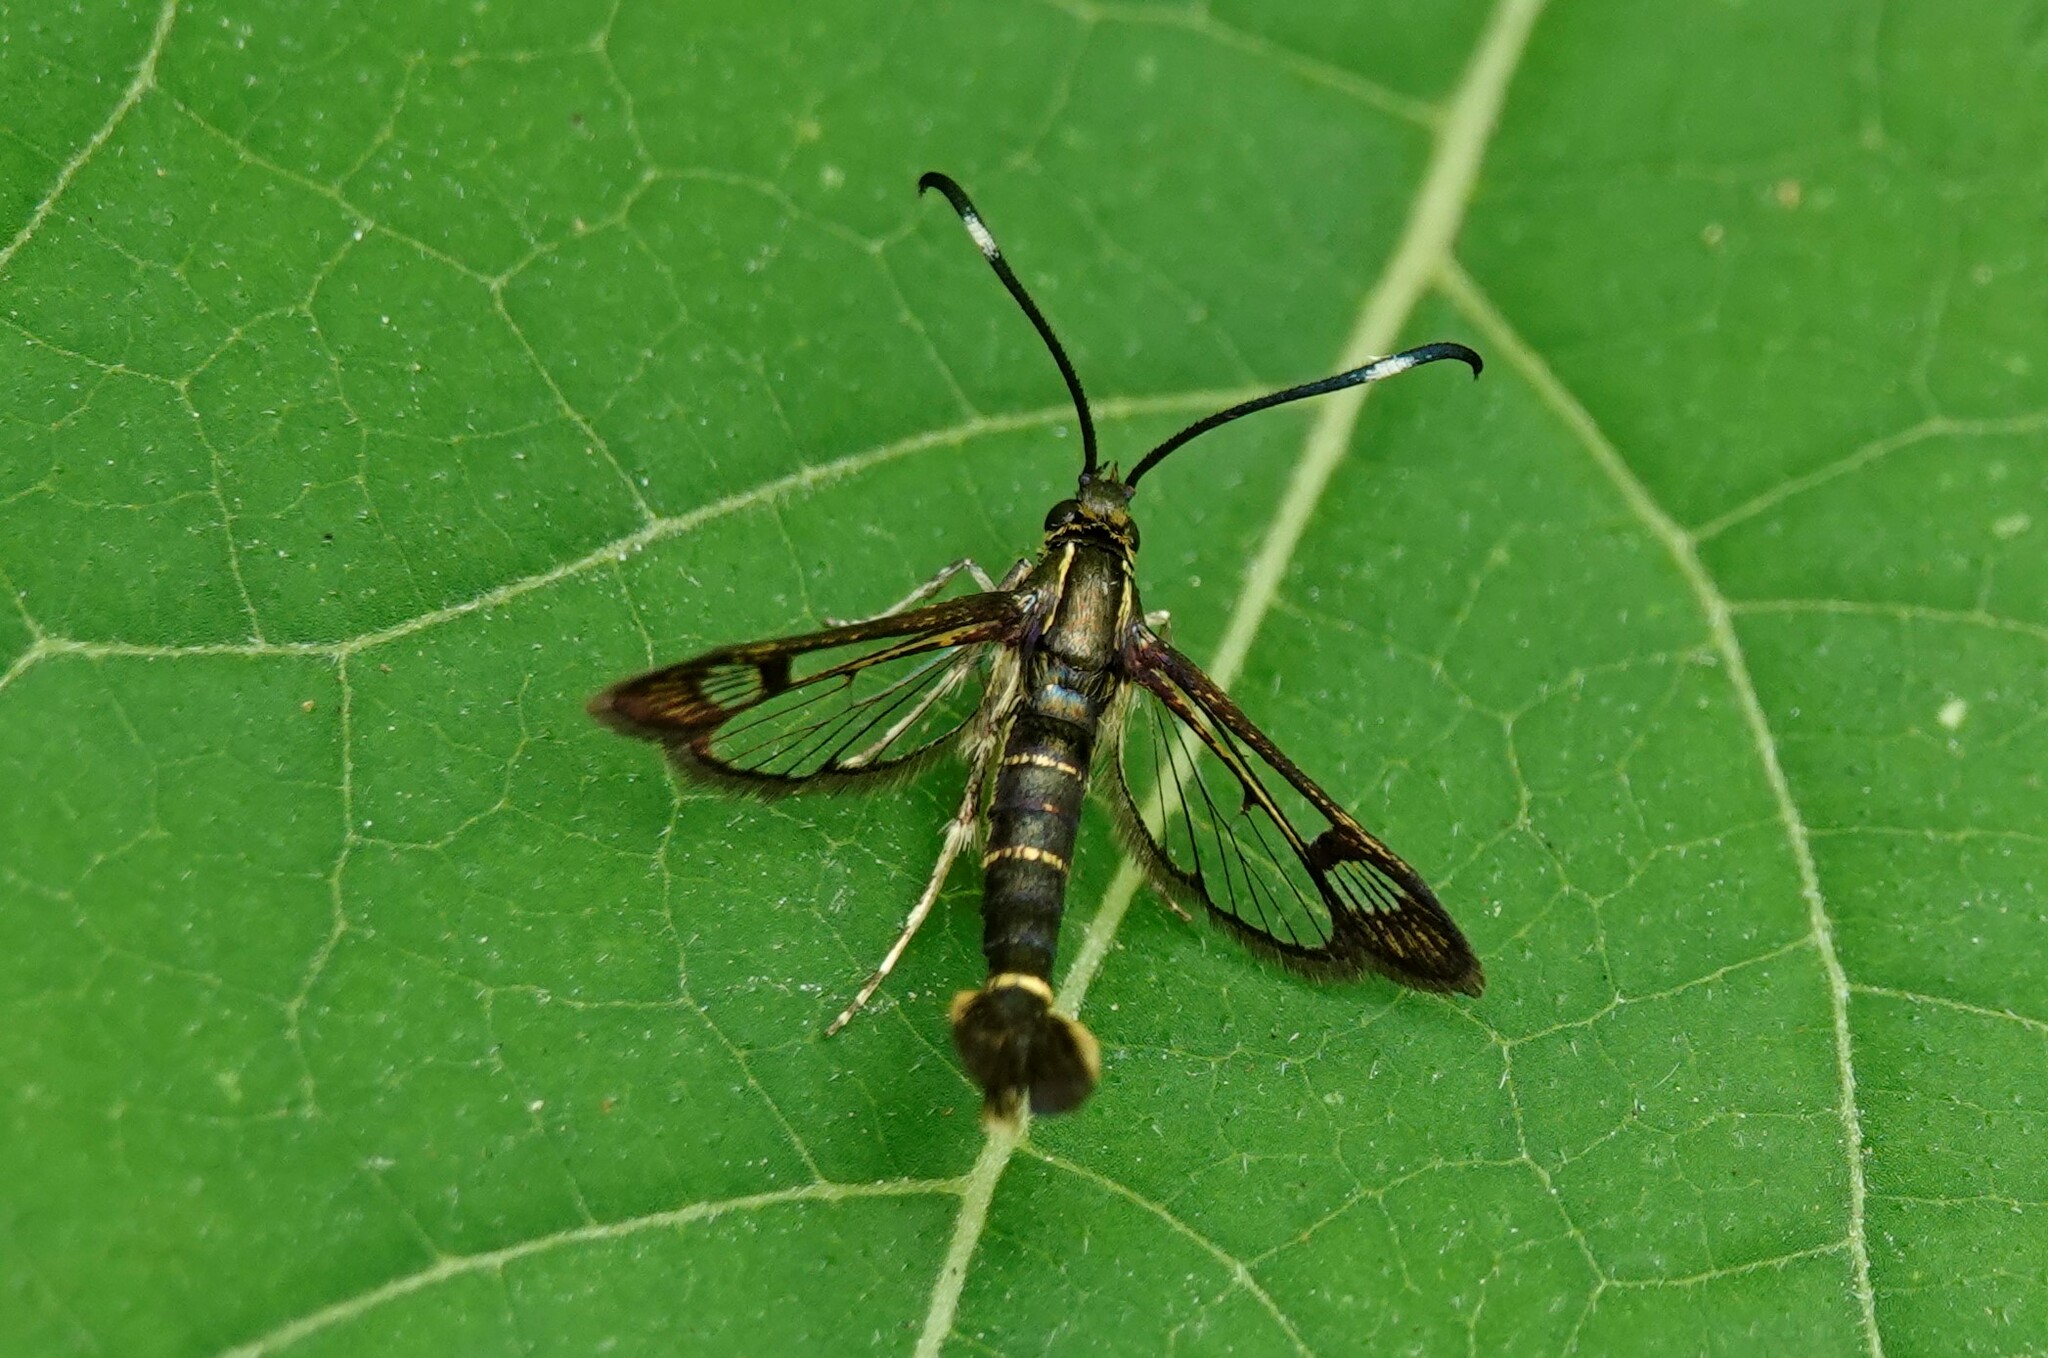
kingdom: Animalia
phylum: Arthropoda
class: Insecta
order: Lepidoptera
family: Sesiidae
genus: Carmenta
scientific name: Carmenta ithacae
